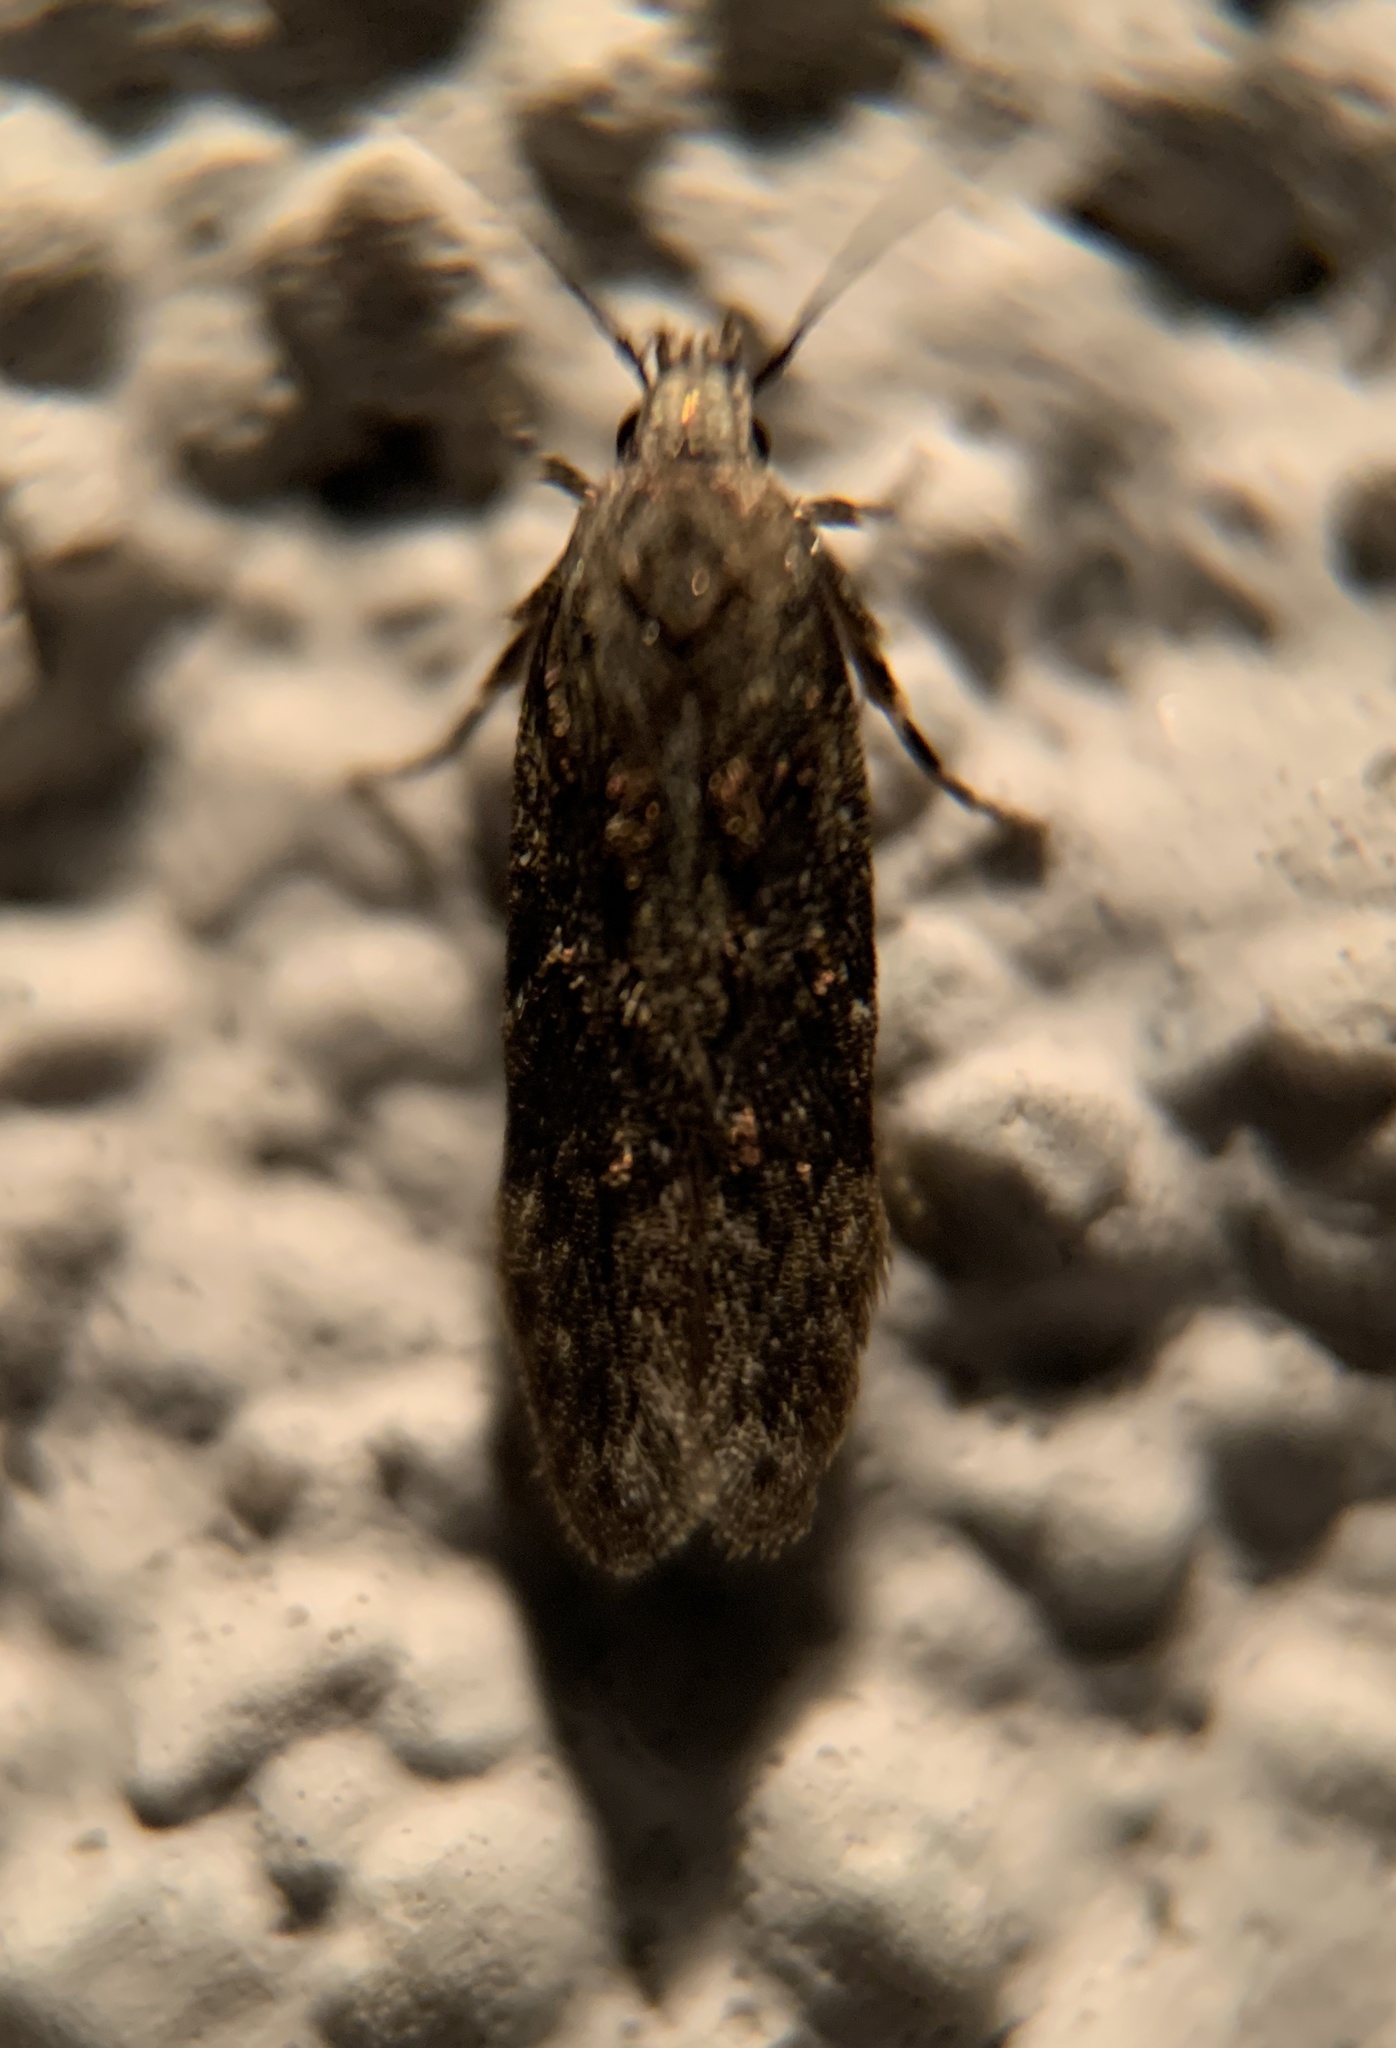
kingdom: Animalia
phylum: Arthropoda
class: Insecta
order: Lepidoptera
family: Gelechiidae
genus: Carpatolechia
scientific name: Carpatolechia fugitivella
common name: Elm groundling
